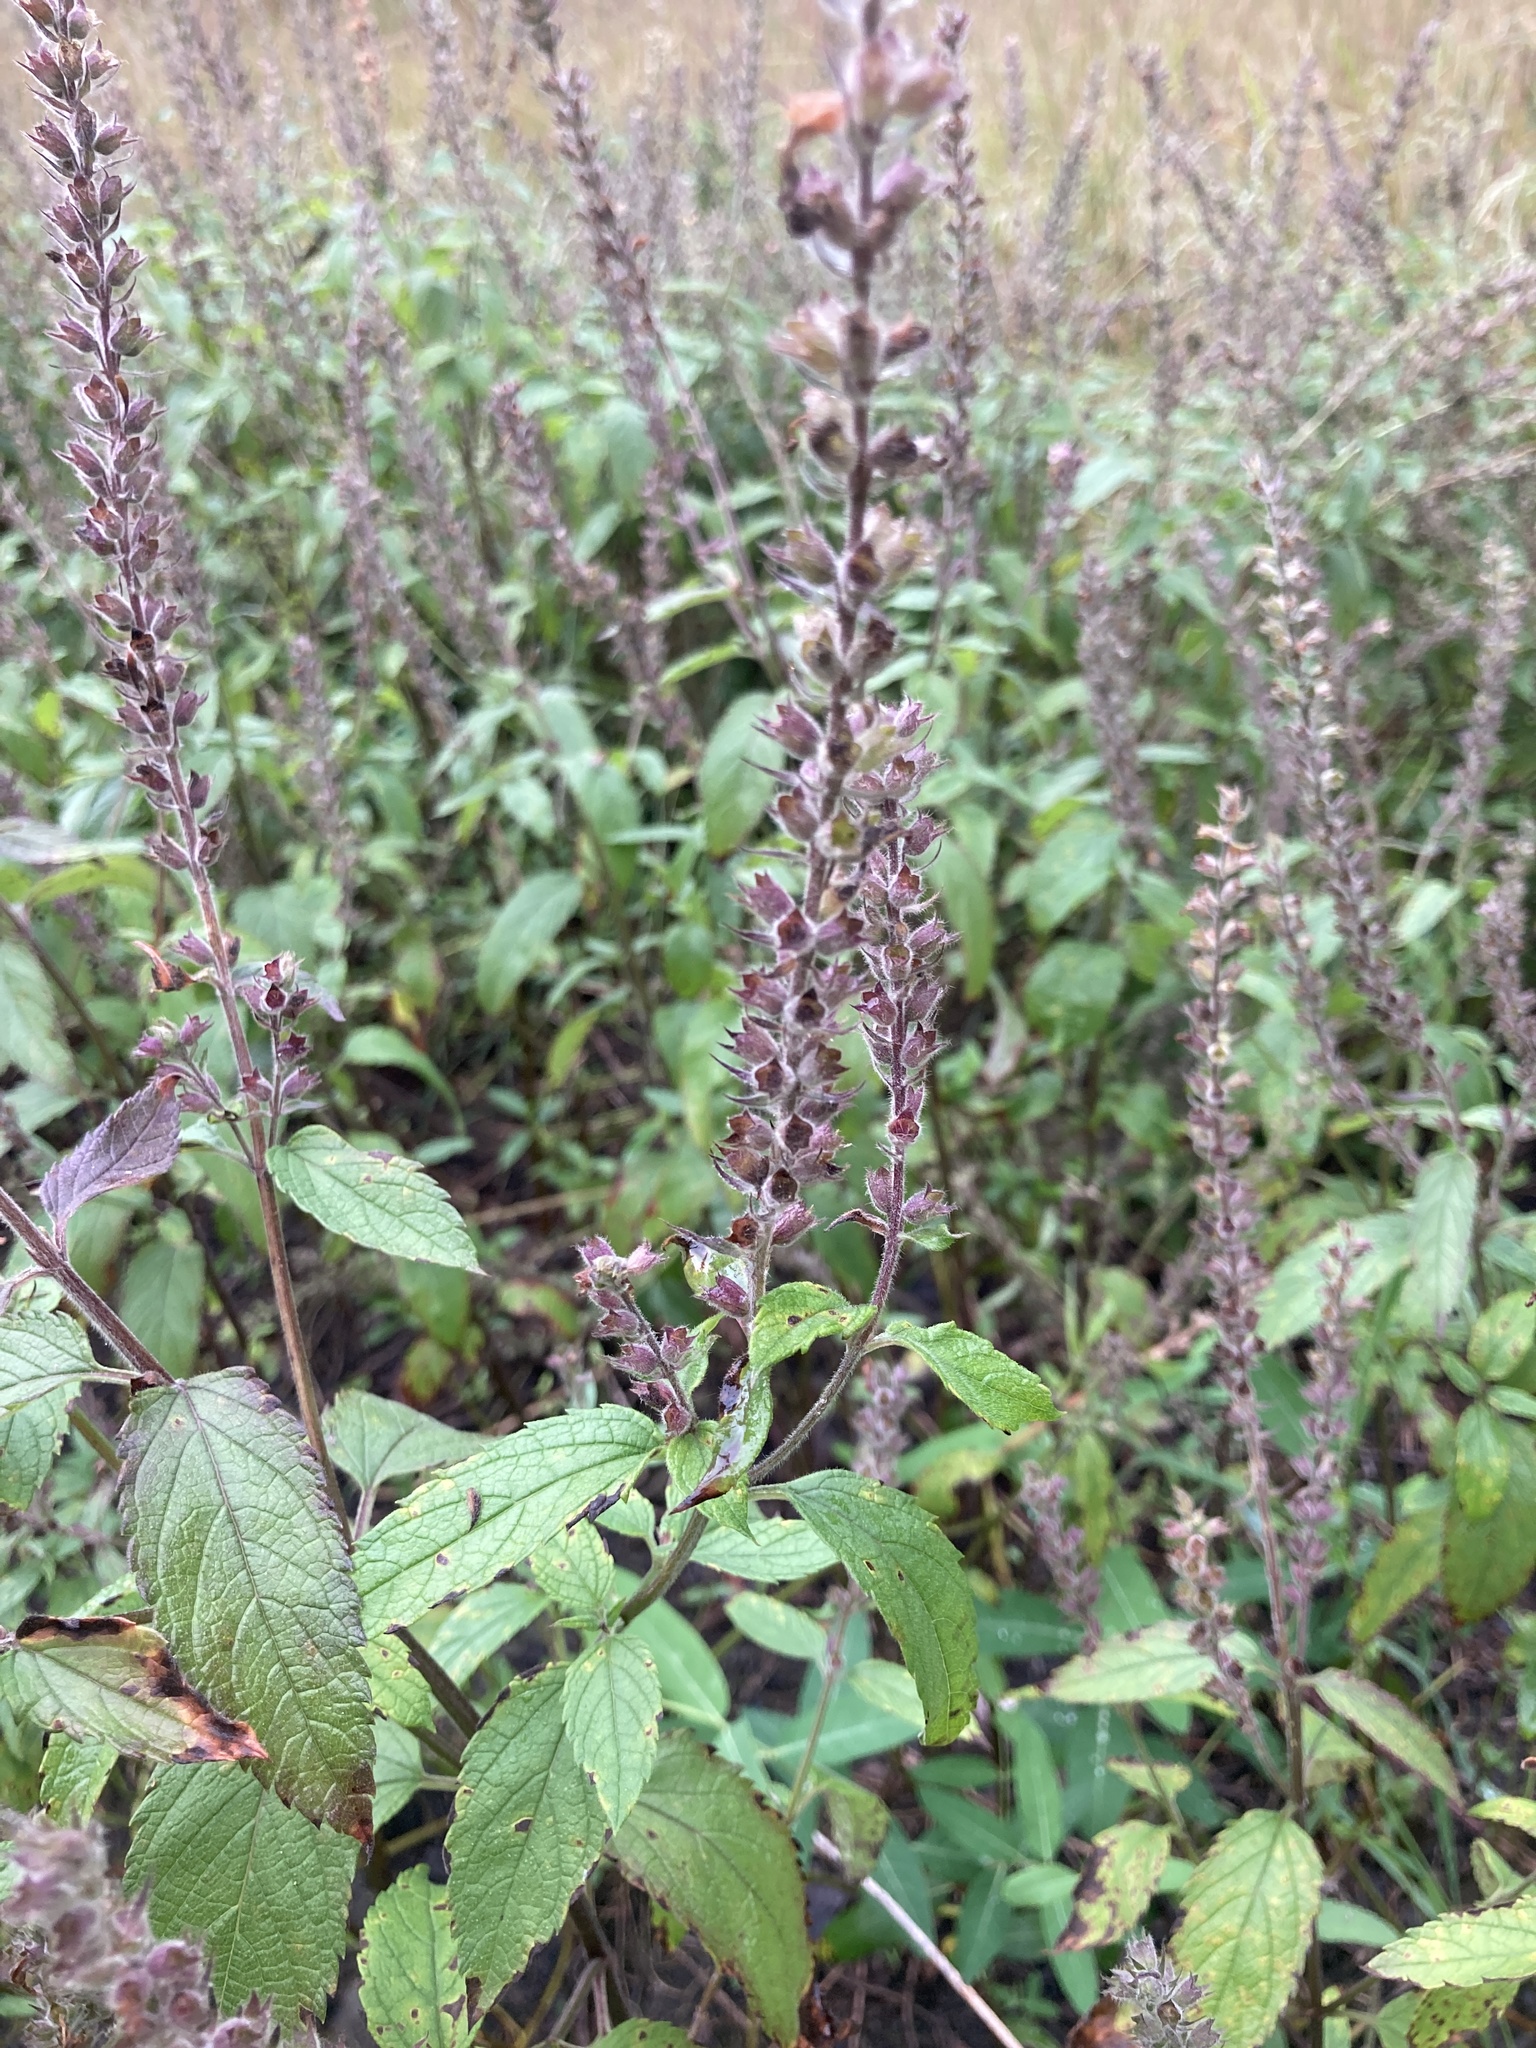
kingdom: Plantae
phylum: Tracheophyta
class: Magnoliopsida
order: Lamiales
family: Lamiaceae
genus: Teucrium
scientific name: Teucrium canadense
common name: American germander
